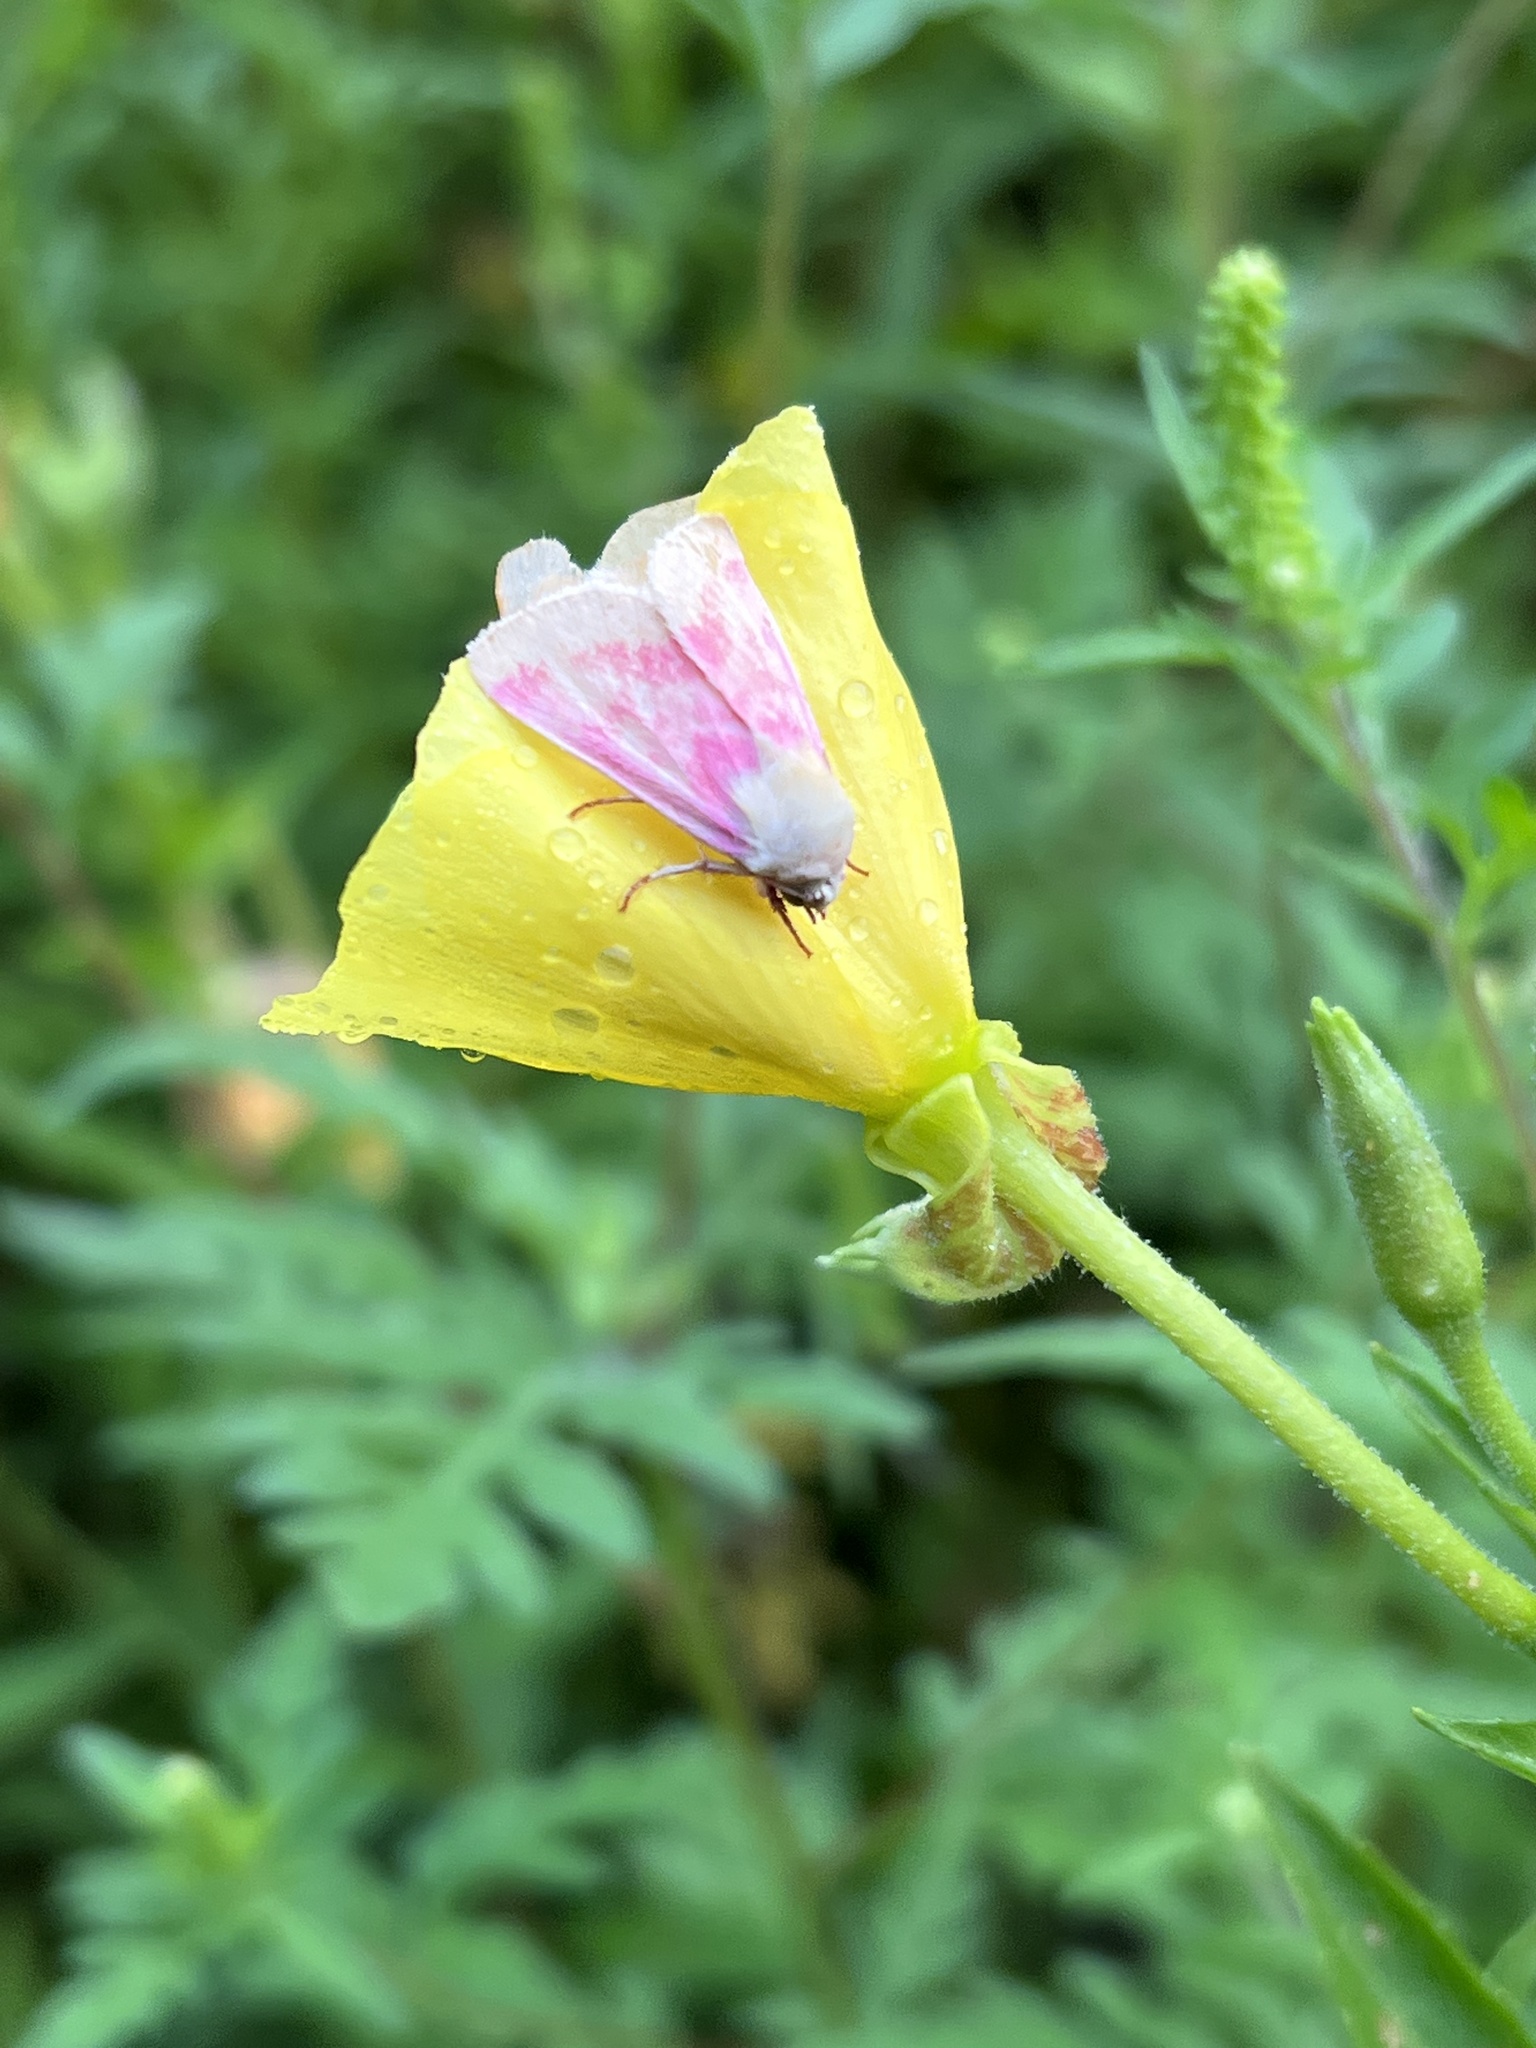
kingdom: Animalia
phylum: Arthropoda
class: Insecta
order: Lepidoptera
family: Noctuidae
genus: Schinia
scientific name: Schinia florida
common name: Primrose moth
